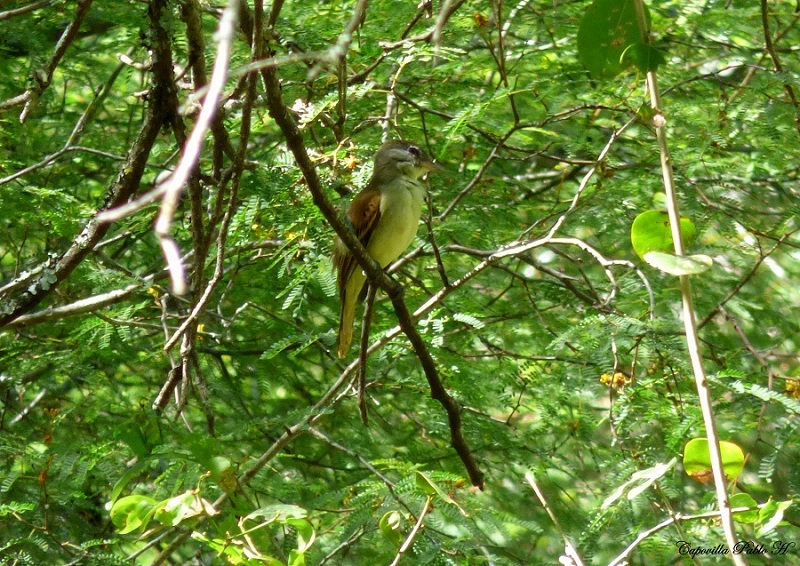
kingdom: Animalia
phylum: Chordata
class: Aves
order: Passeriformes
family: Tyrannidae
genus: Lathrotriccus
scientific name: Lathrotriccus euleri
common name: Euler's flycatcher
